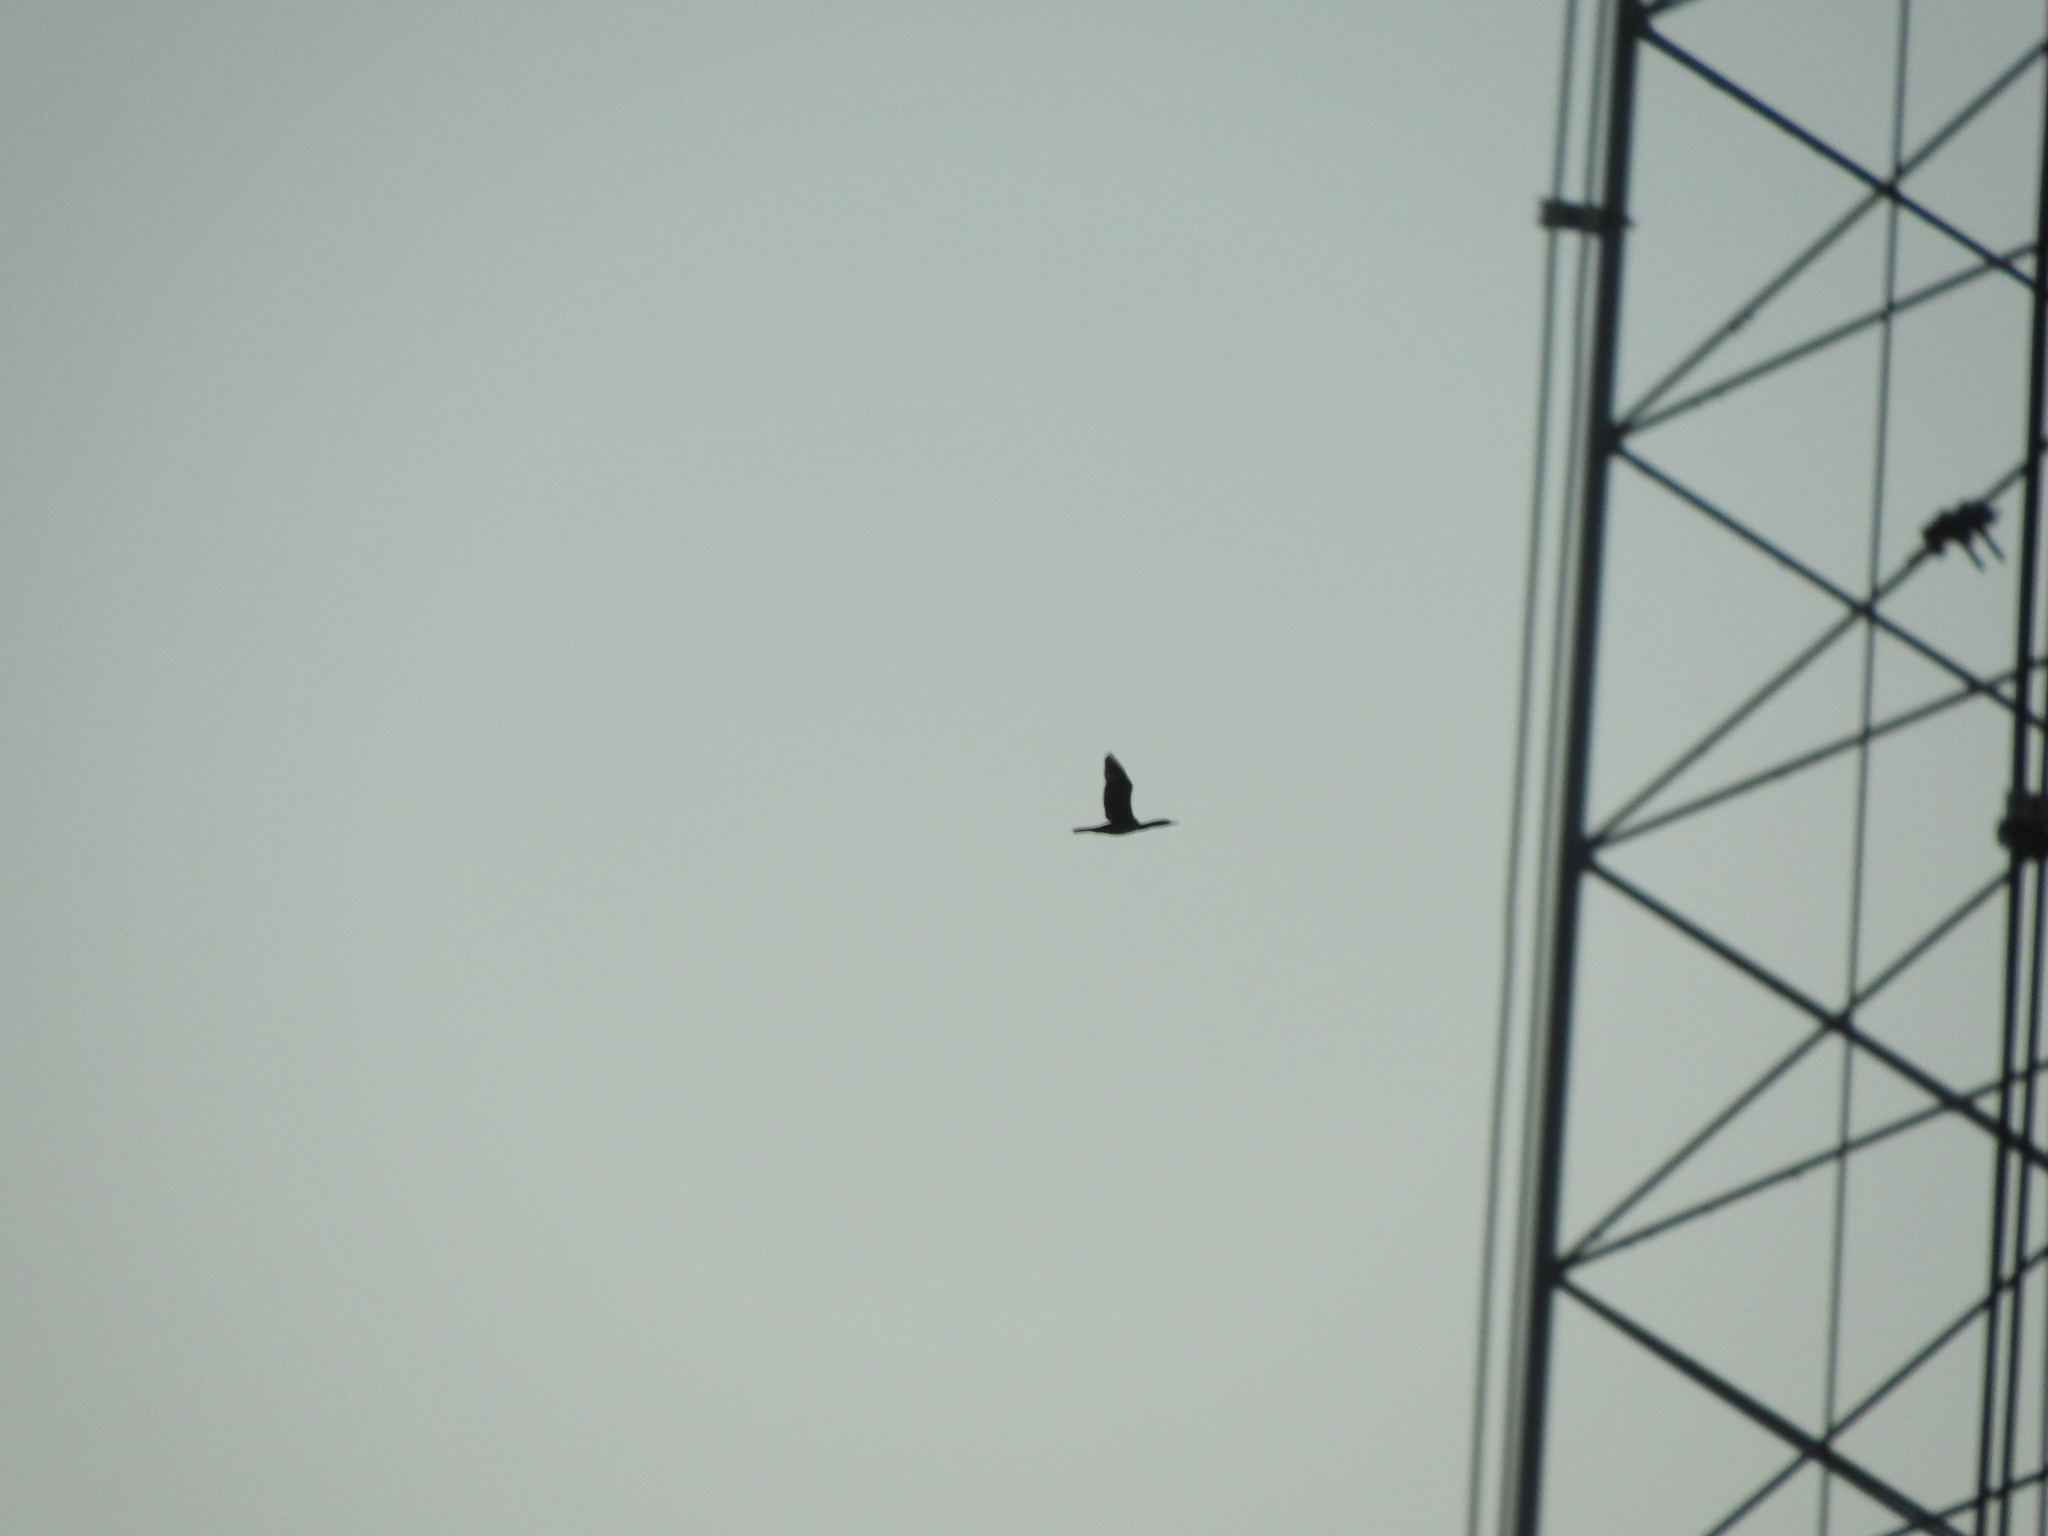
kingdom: Animalia
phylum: Chordata
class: Aves
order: Suliformes
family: Phalacrocoracidae
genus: Phalacrocorax
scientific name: Phalacrocorax brasilianus
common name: Neotropic cormorant
